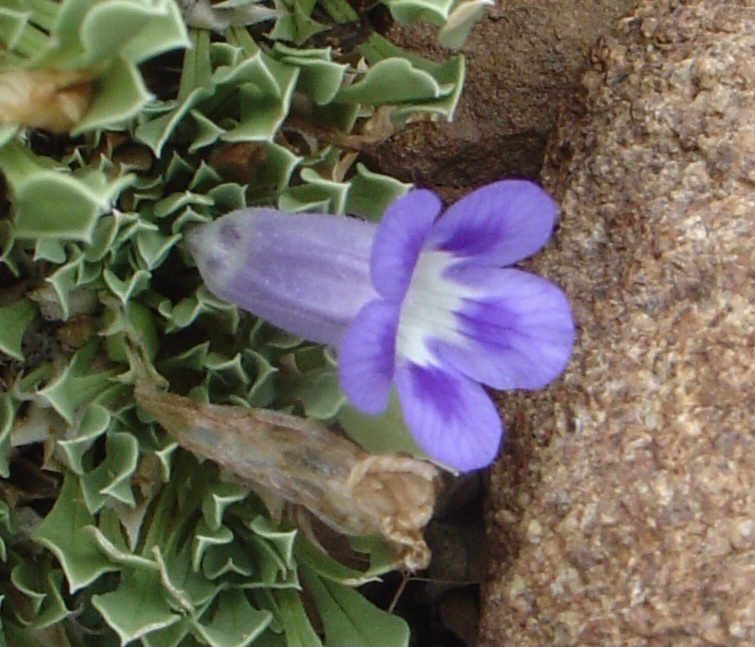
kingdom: Plantae
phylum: Tracheophyta
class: Magnoliopsida
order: Lamiales
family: Scrophulariaceae
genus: Aptosimum
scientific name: Aptosimum indivisum
